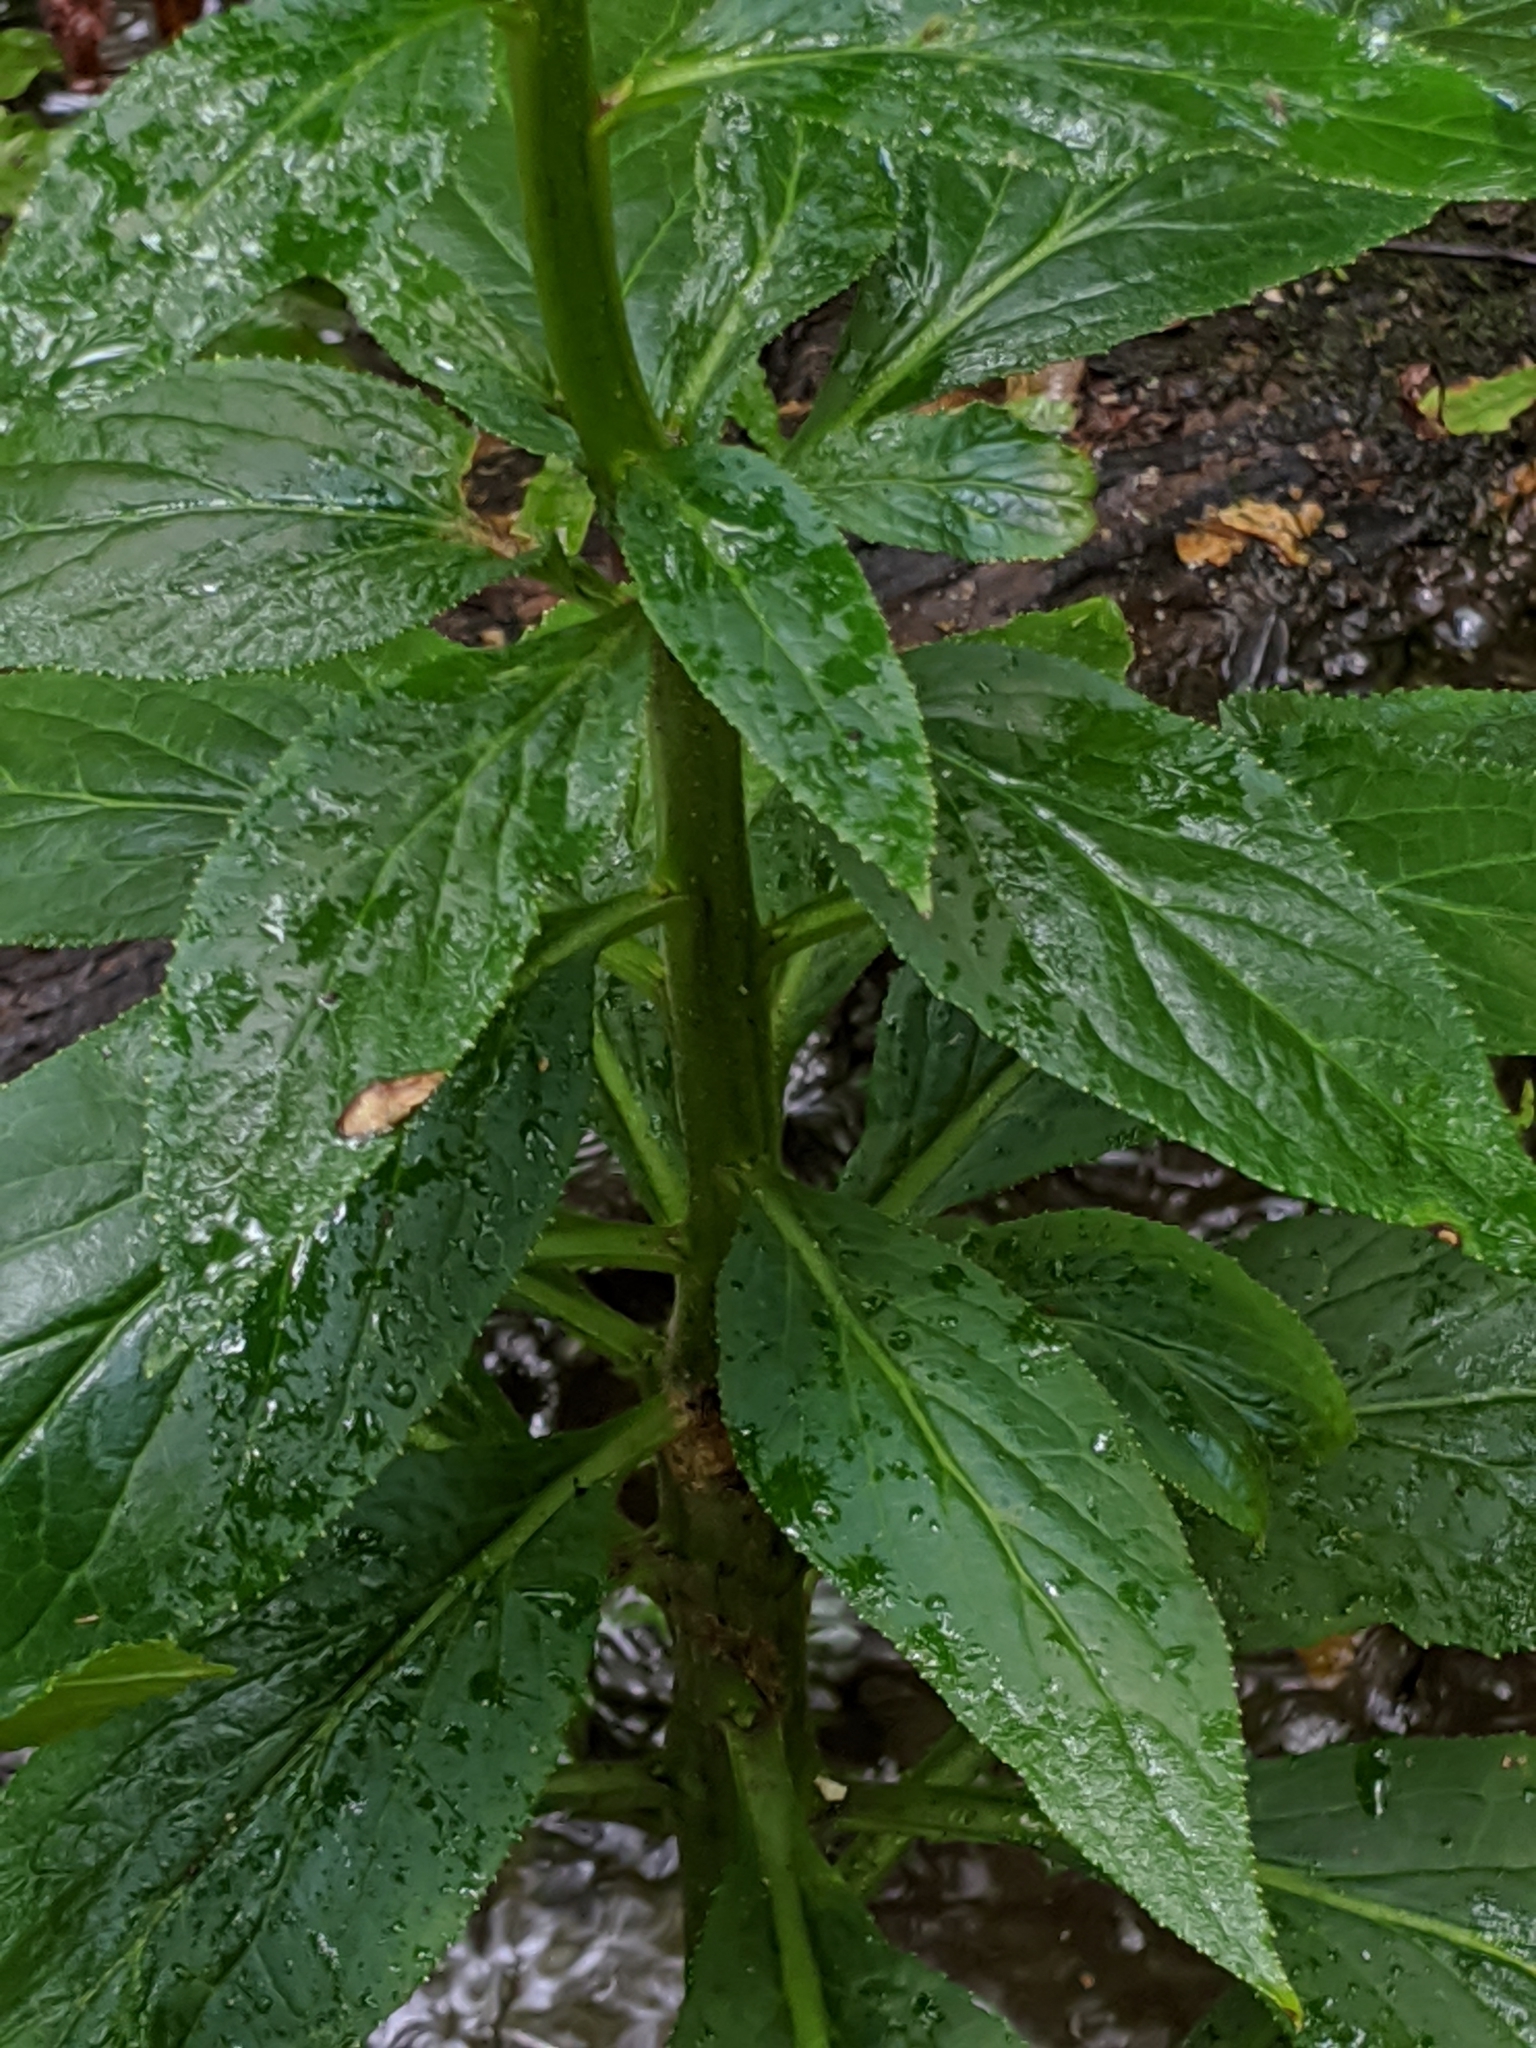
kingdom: Plantae
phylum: Tracheophyta
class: Magnoliopsida
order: Asterales
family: Campanulaceae
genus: Lobelia
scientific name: Lobelia cardinalis
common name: Cardinal flower
